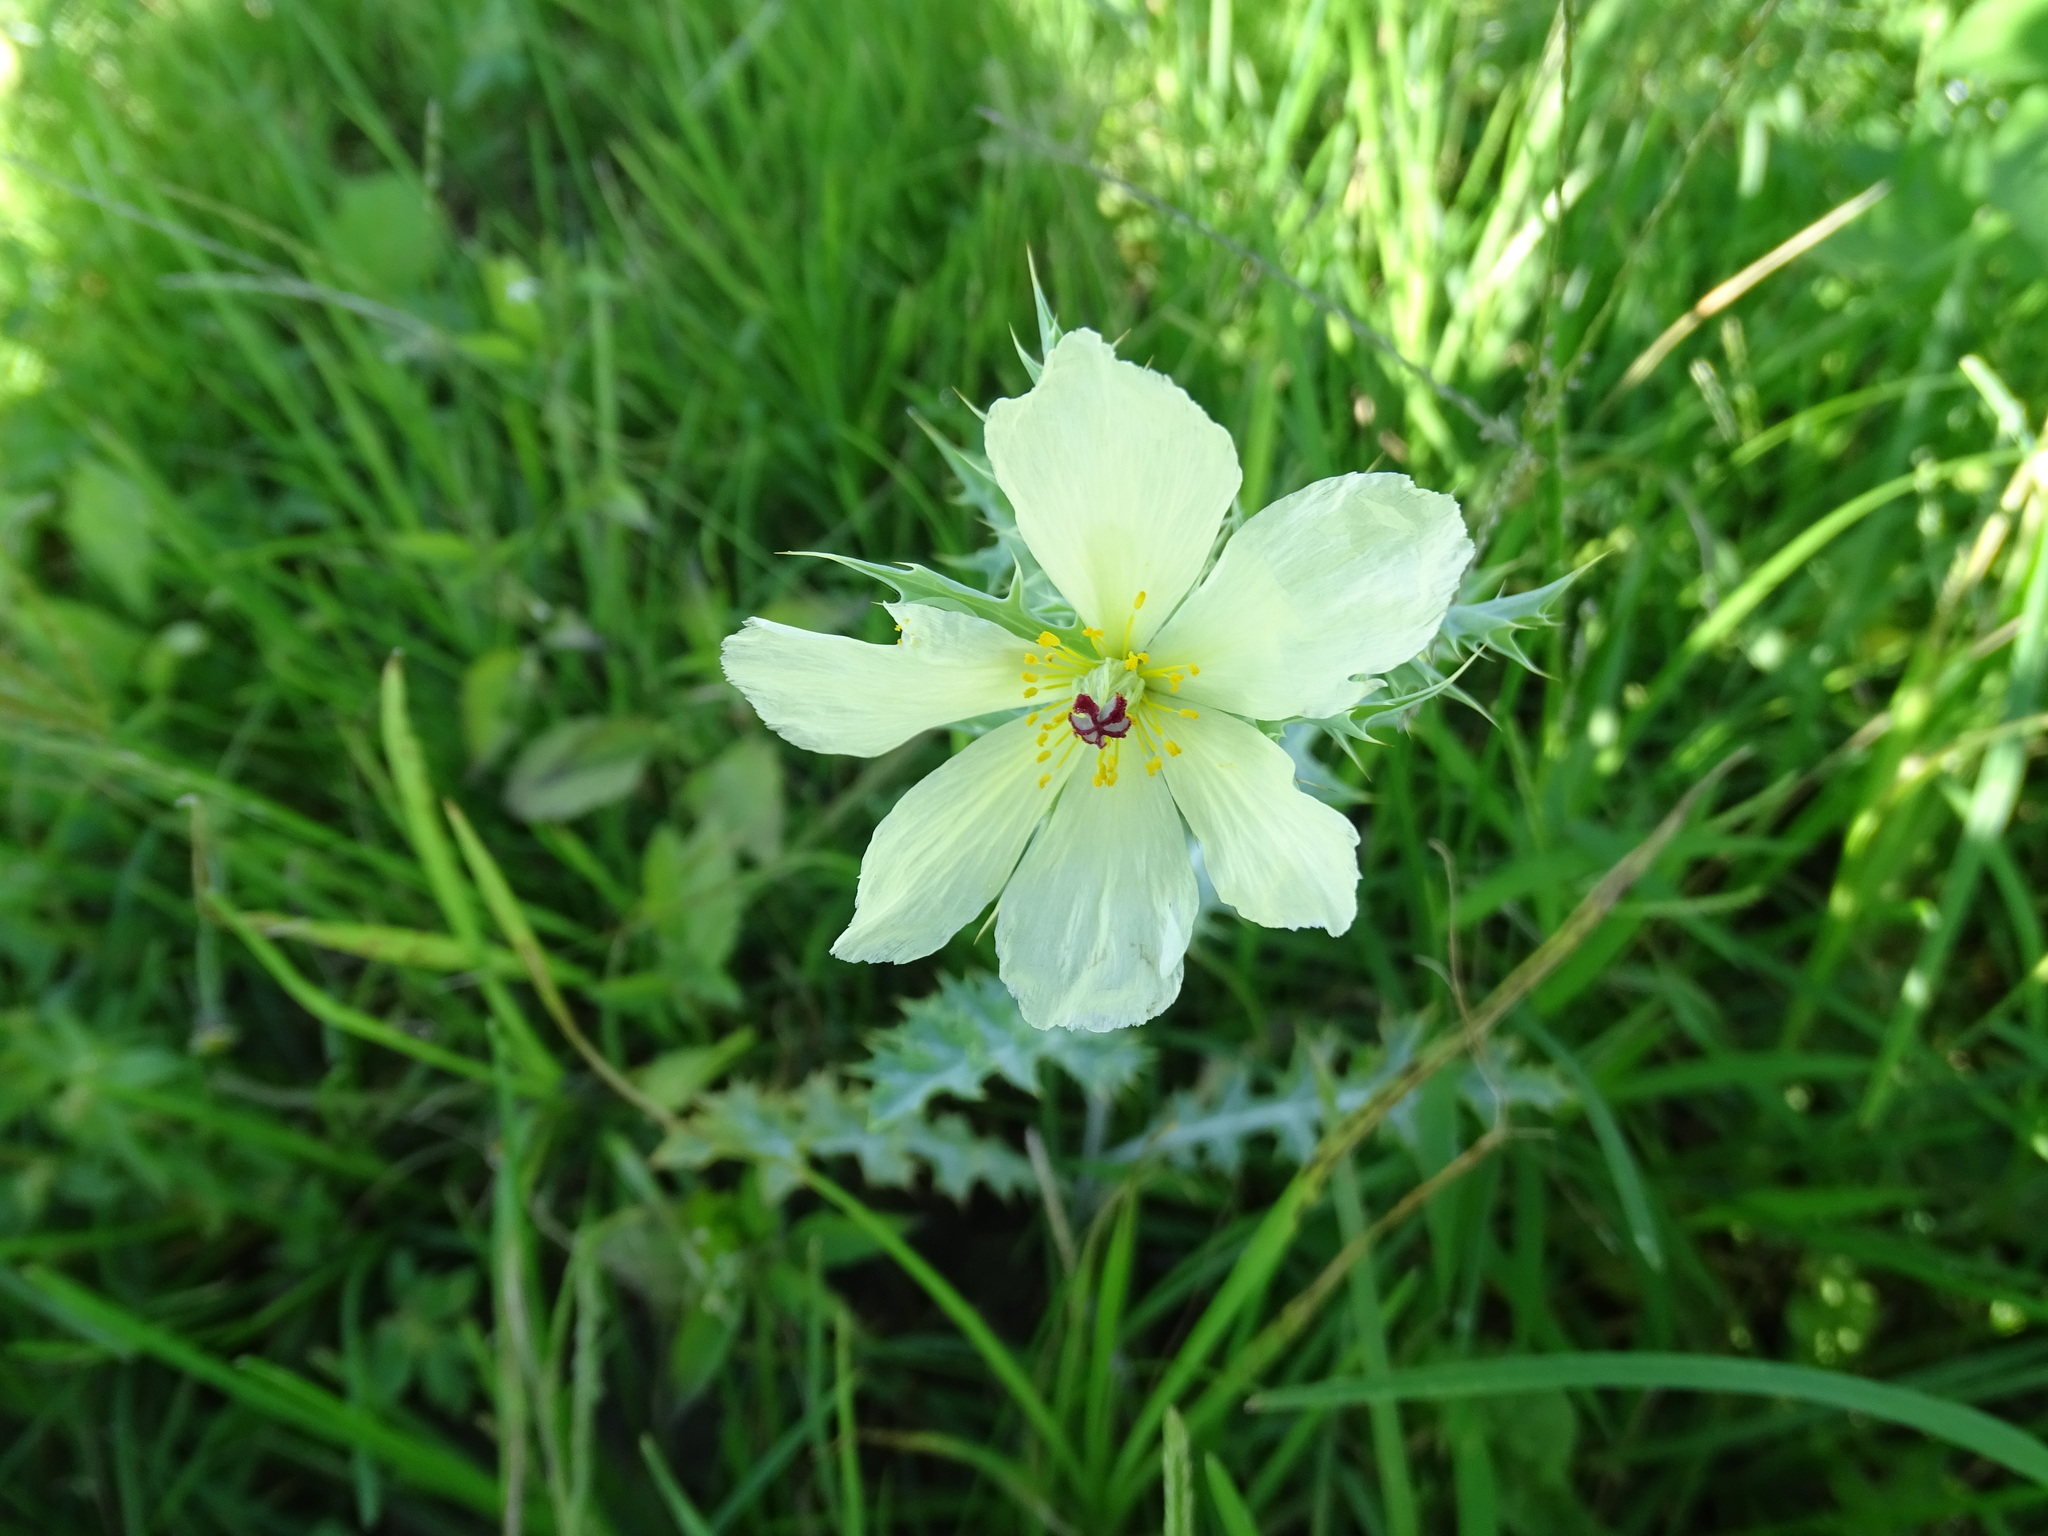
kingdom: Plantae
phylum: Tracheophyta
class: Magnoliopsida
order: Ranunculales
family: Papaveraceae
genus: Argemone
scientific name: Argemone ochroleuca
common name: White-flower mexican-poppy
